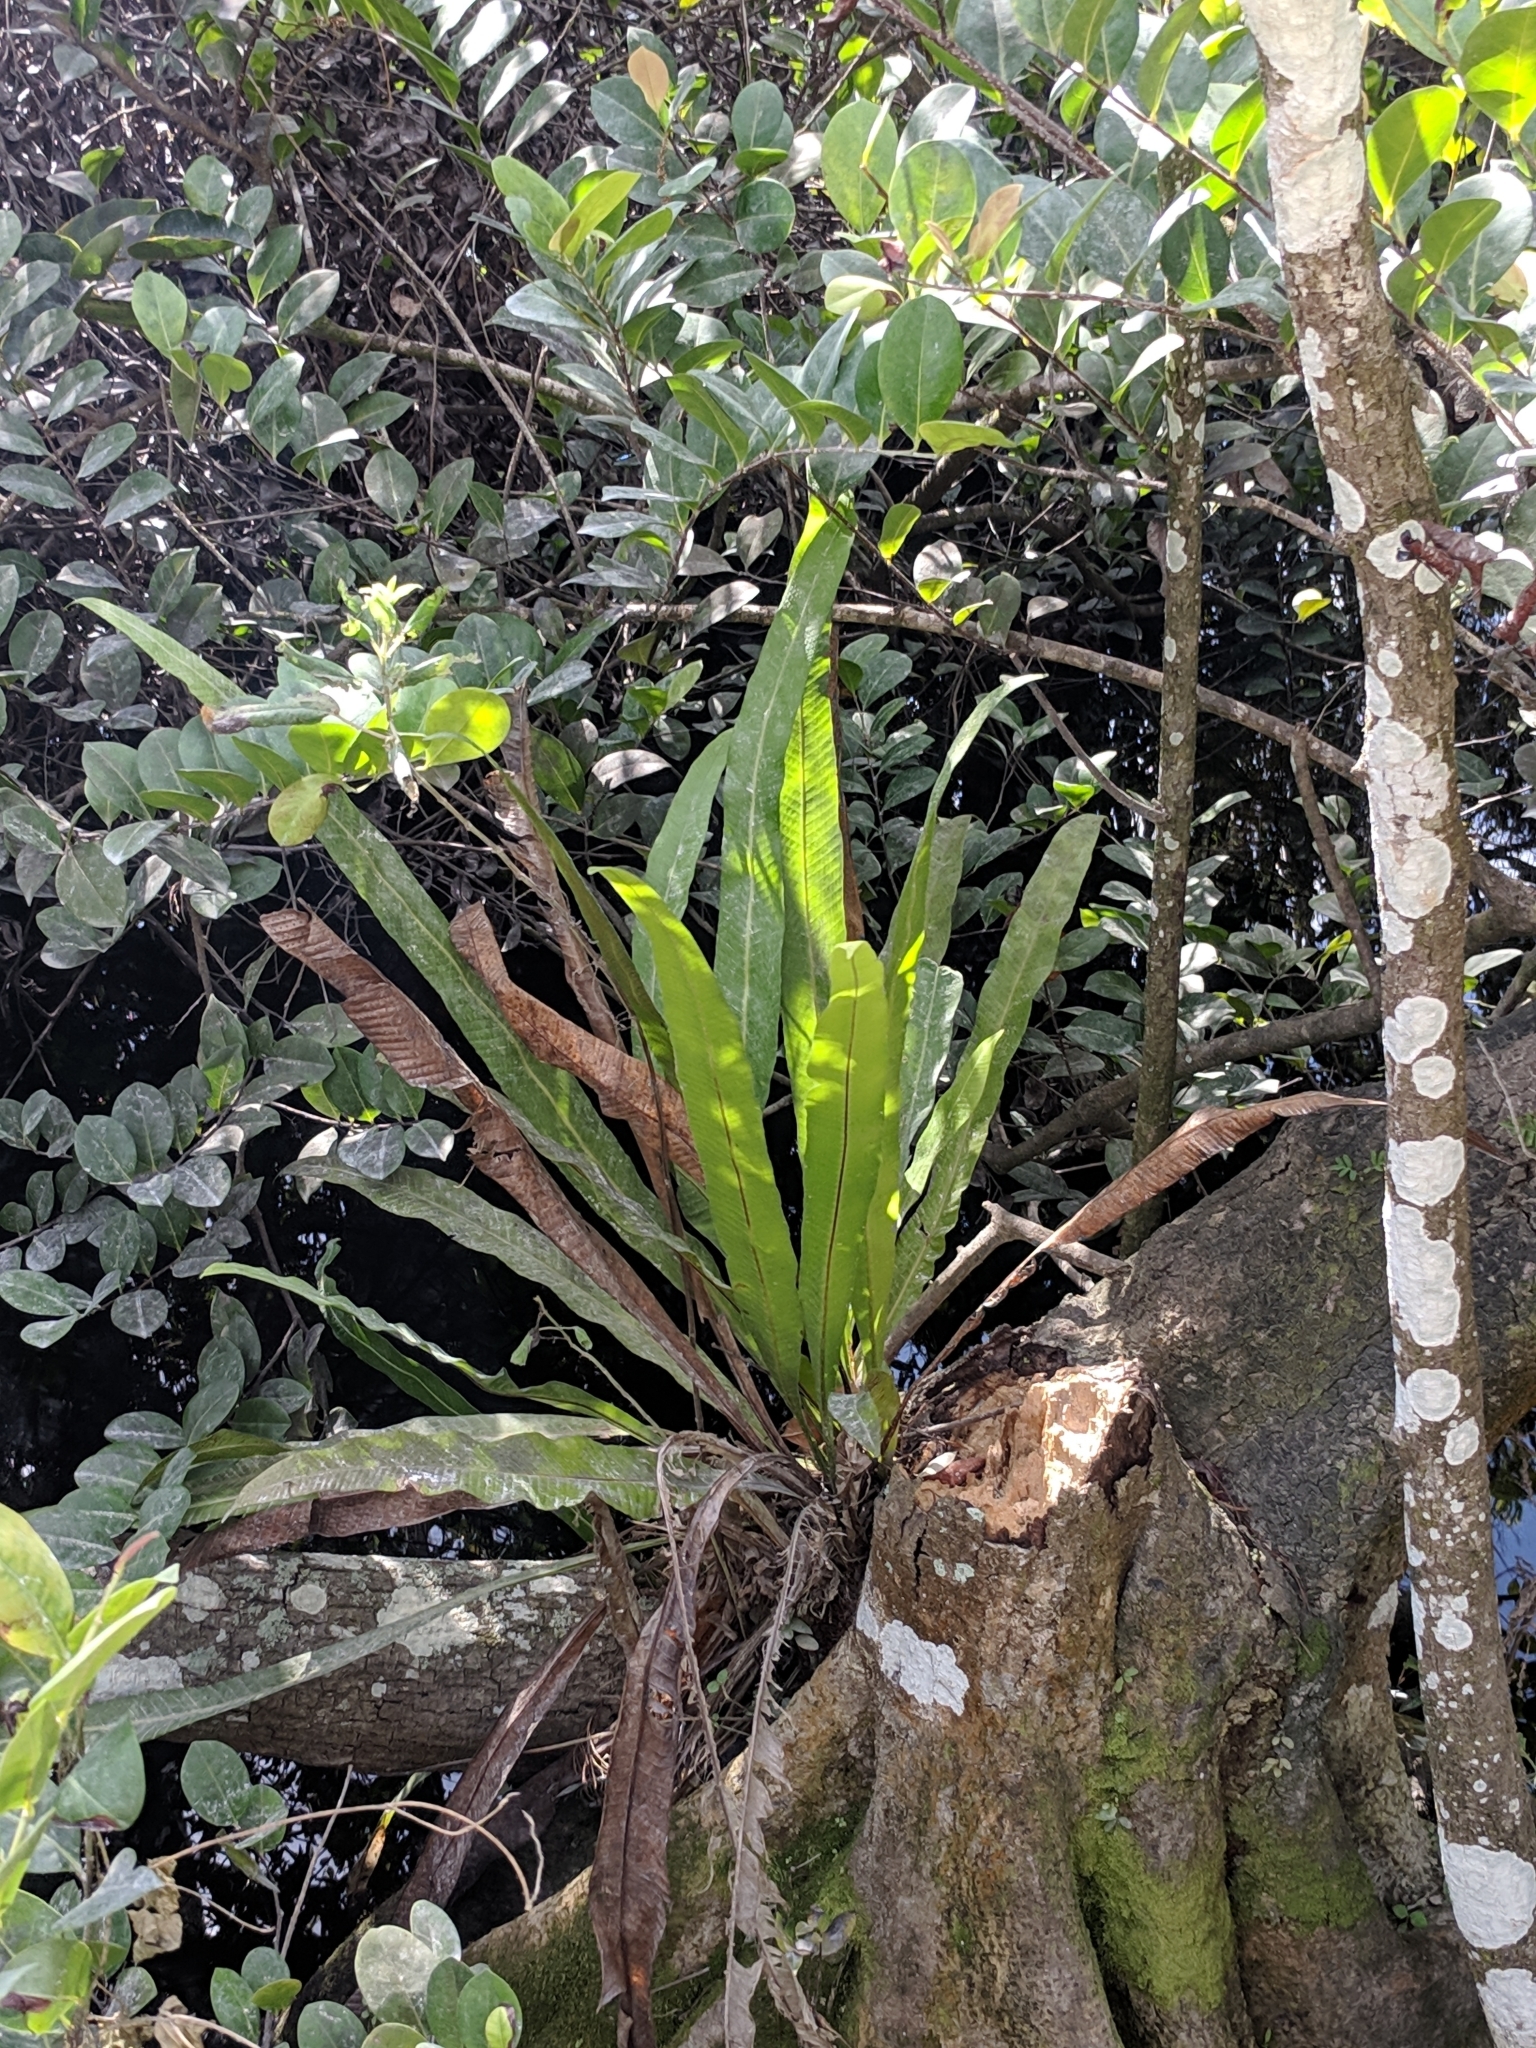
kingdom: Plantae
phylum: Tracheophyta
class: Polypodiopsida
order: Polypodiales
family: Polypodiaceae
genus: Campyloneurum
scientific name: Campyloneurum phyllitidis
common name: Cow-tongue fern
